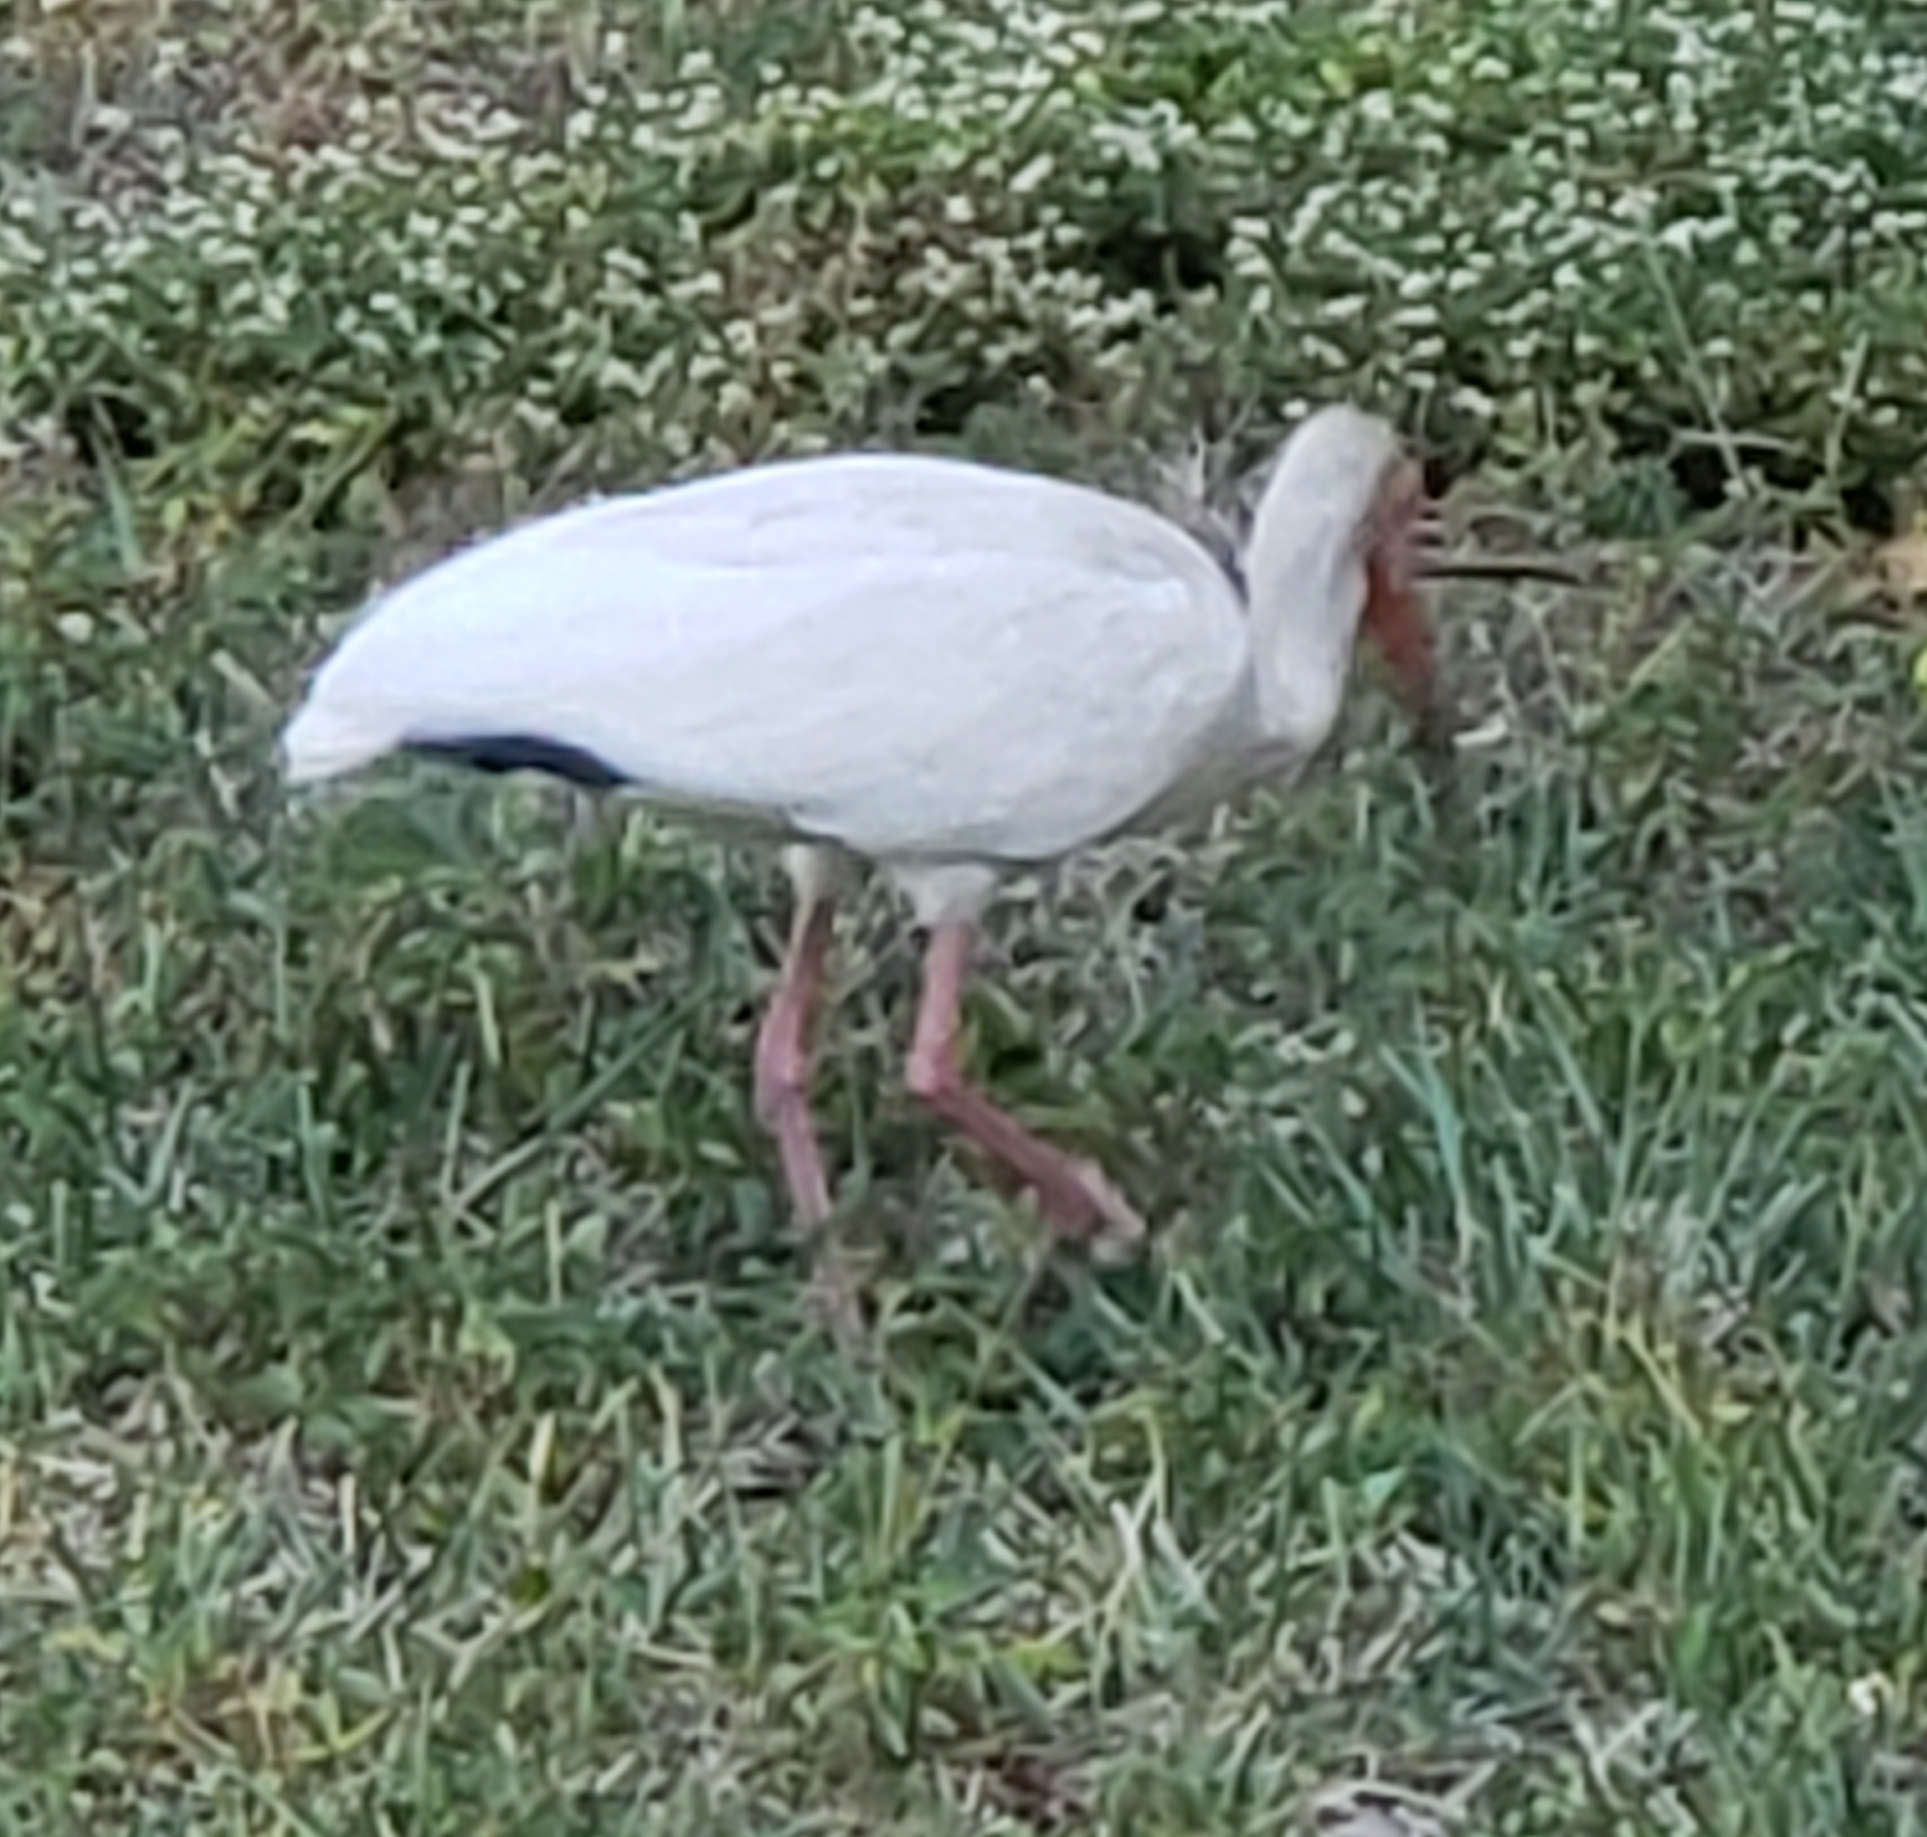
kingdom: Animalia
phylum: Chordata
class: Aves
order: Pelecaniformes
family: Threskiornithidae
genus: Eudocimus
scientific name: Eudocimus albus
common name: White ibis
